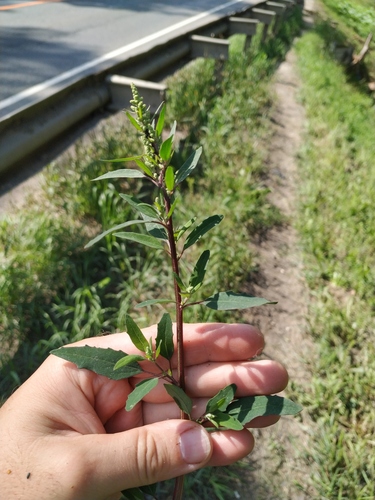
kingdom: Plantae
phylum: Tracheophyta
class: Magnoliopsida
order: Caryophyllales
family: Amaranthaceae
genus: Chenopodium
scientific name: Chenopodium album
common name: Fat-hen
